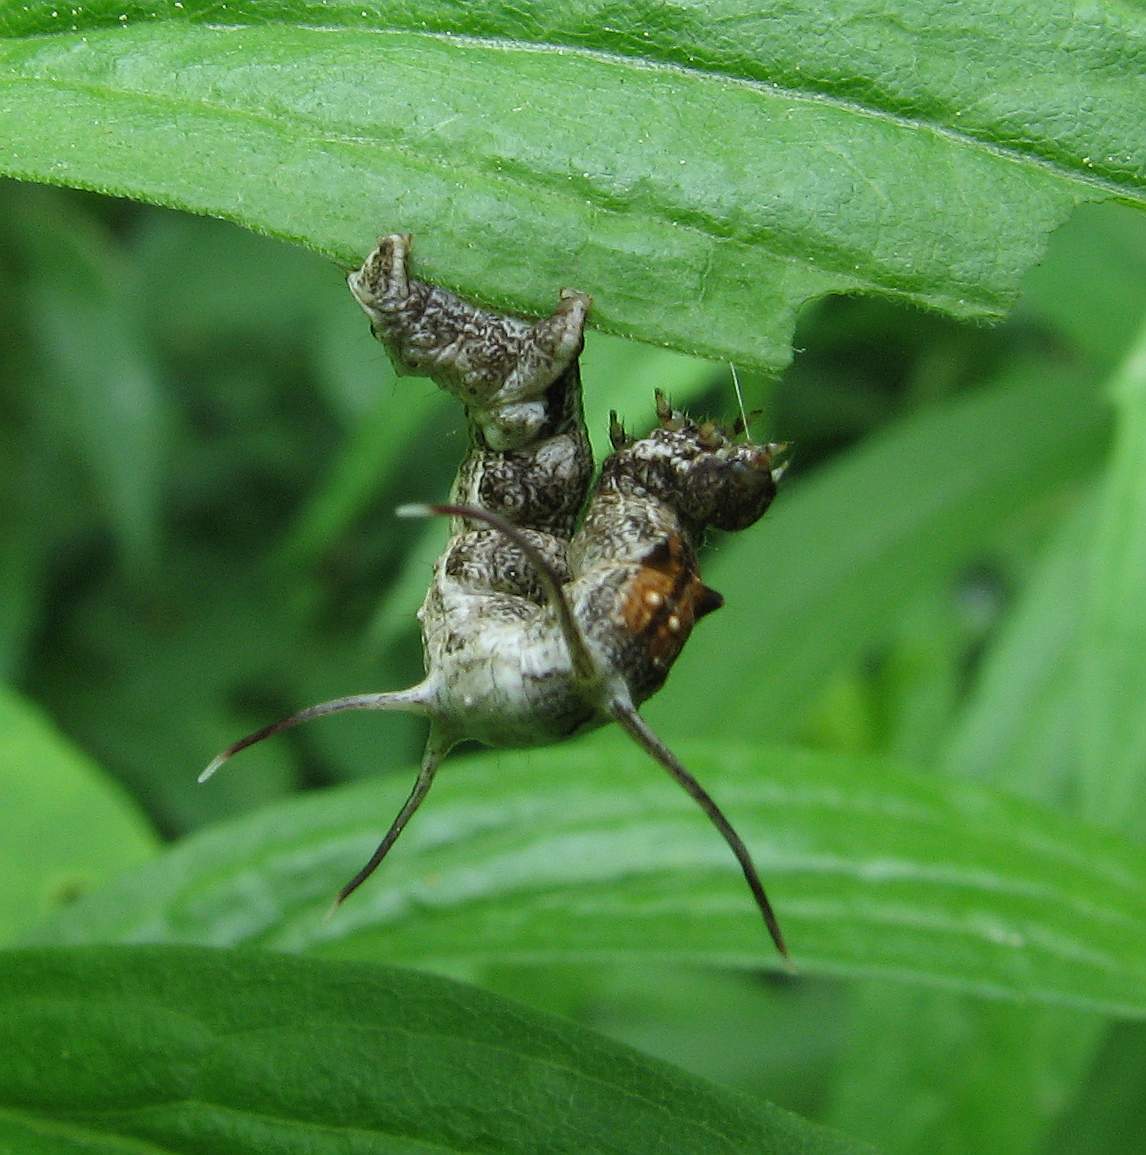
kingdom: Animalia
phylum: Arthropoda
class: Insecta
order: Lepidoptera
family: Geometridae
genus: Nematocampa
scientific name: Nematocampa resistaria
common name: Horned spanworm moth
